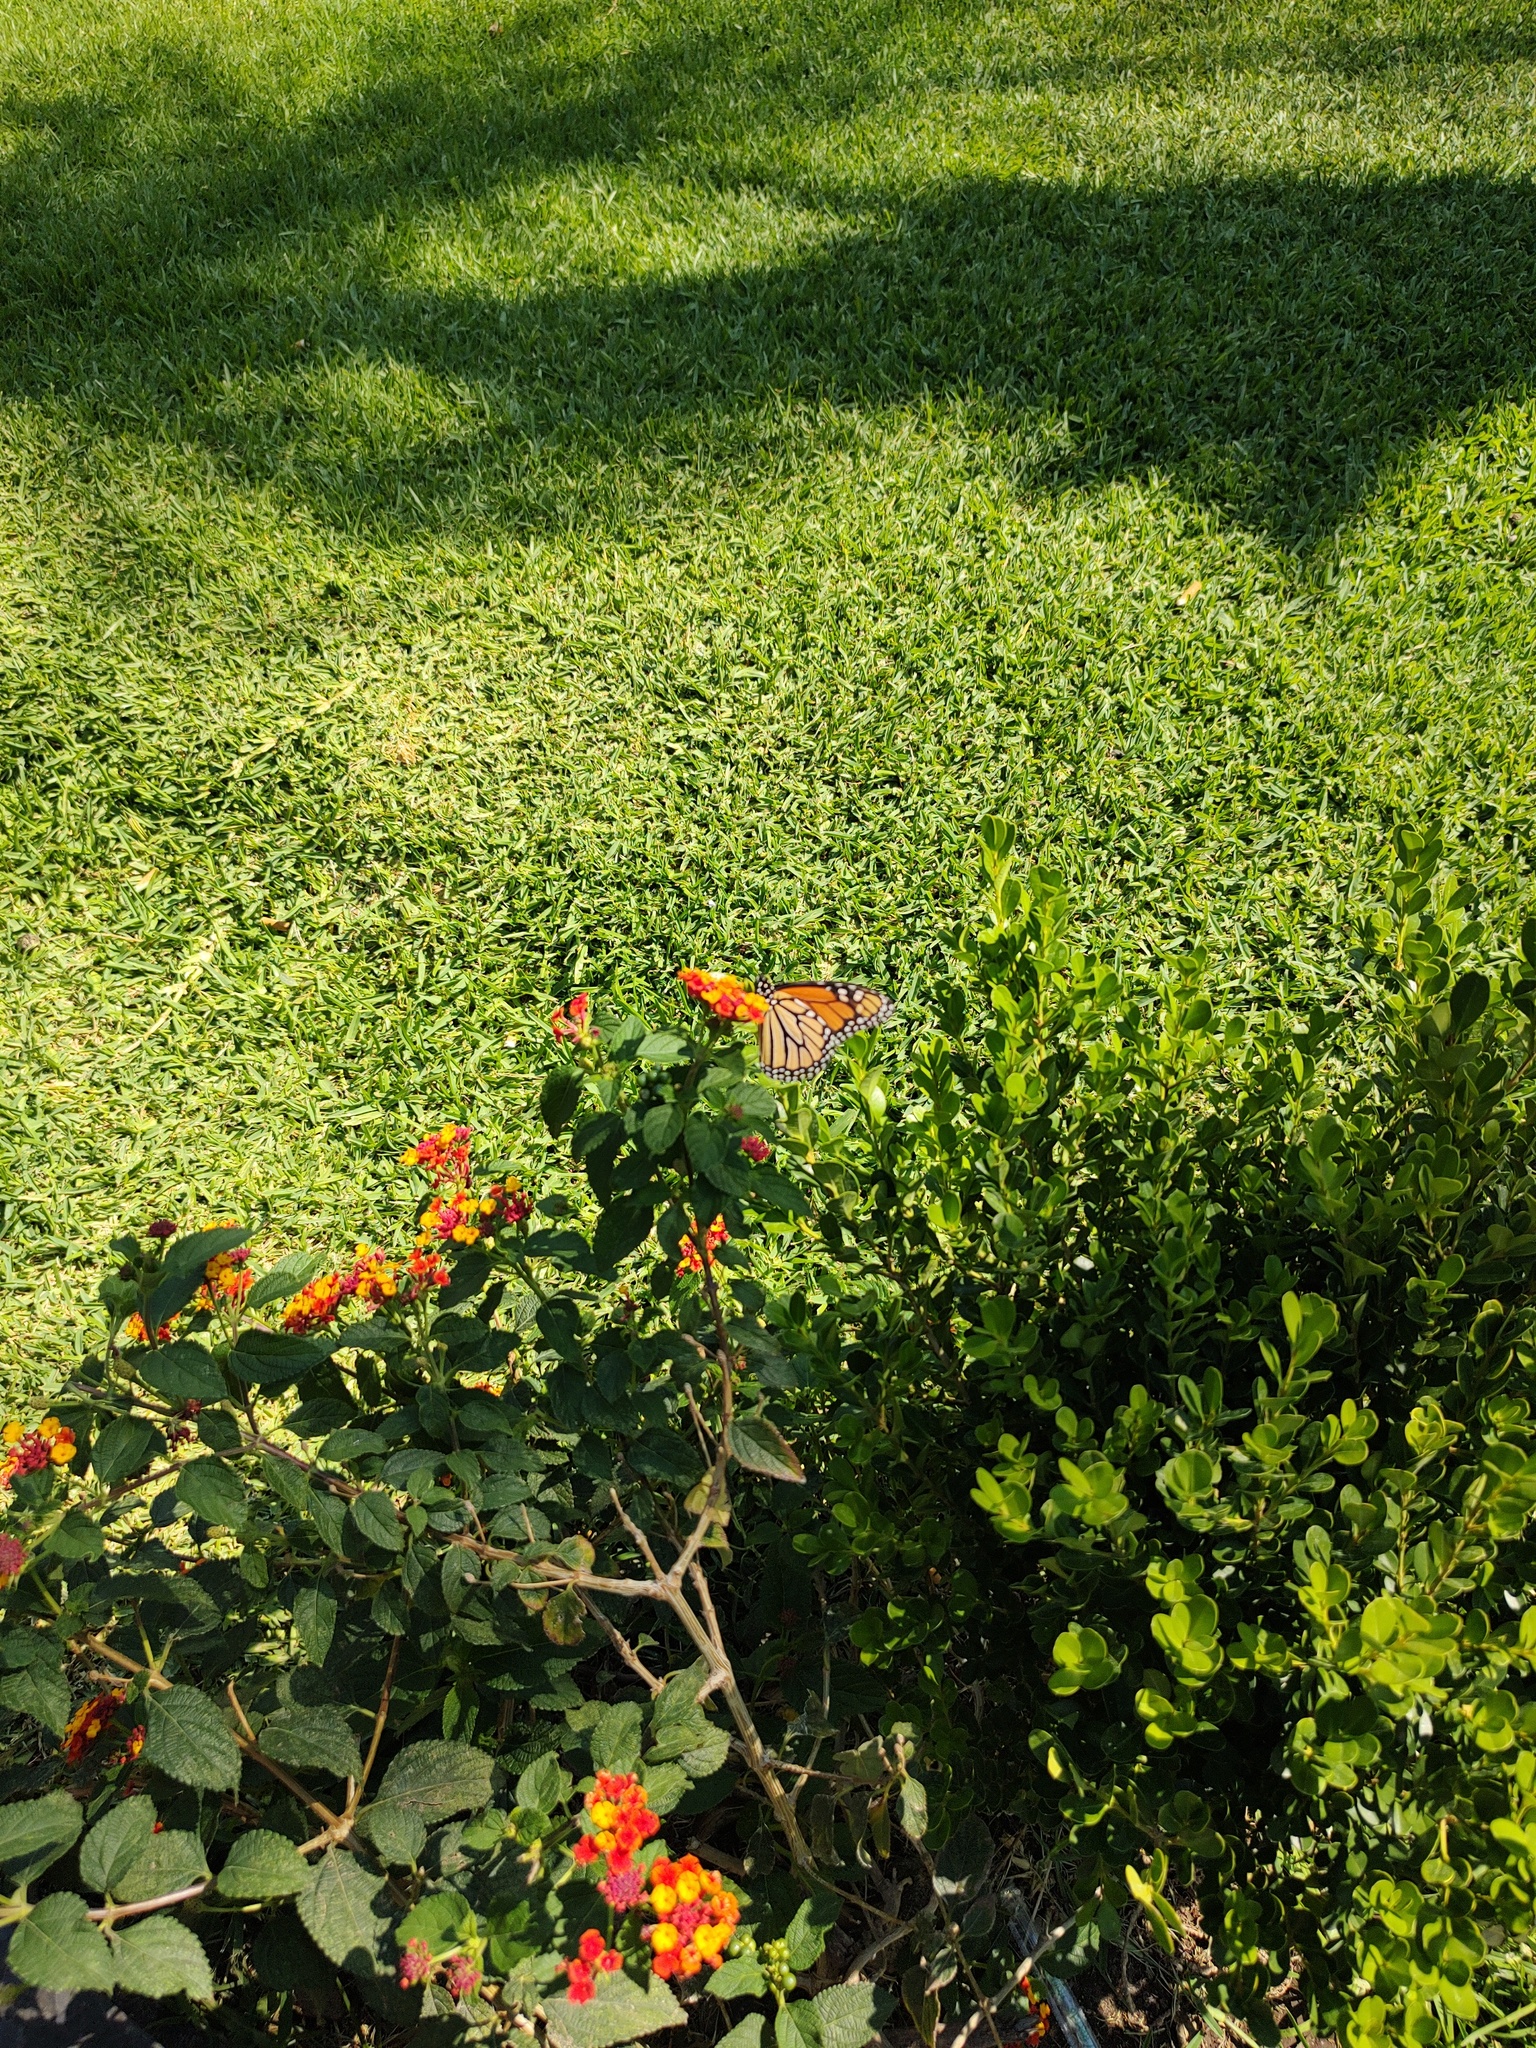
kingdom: Animalia
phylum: Arthropoda
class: Insecta
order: Lepidoptera
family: Nymphalidae
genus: Danaus
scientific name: Danaus plexippus
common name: Monarch
